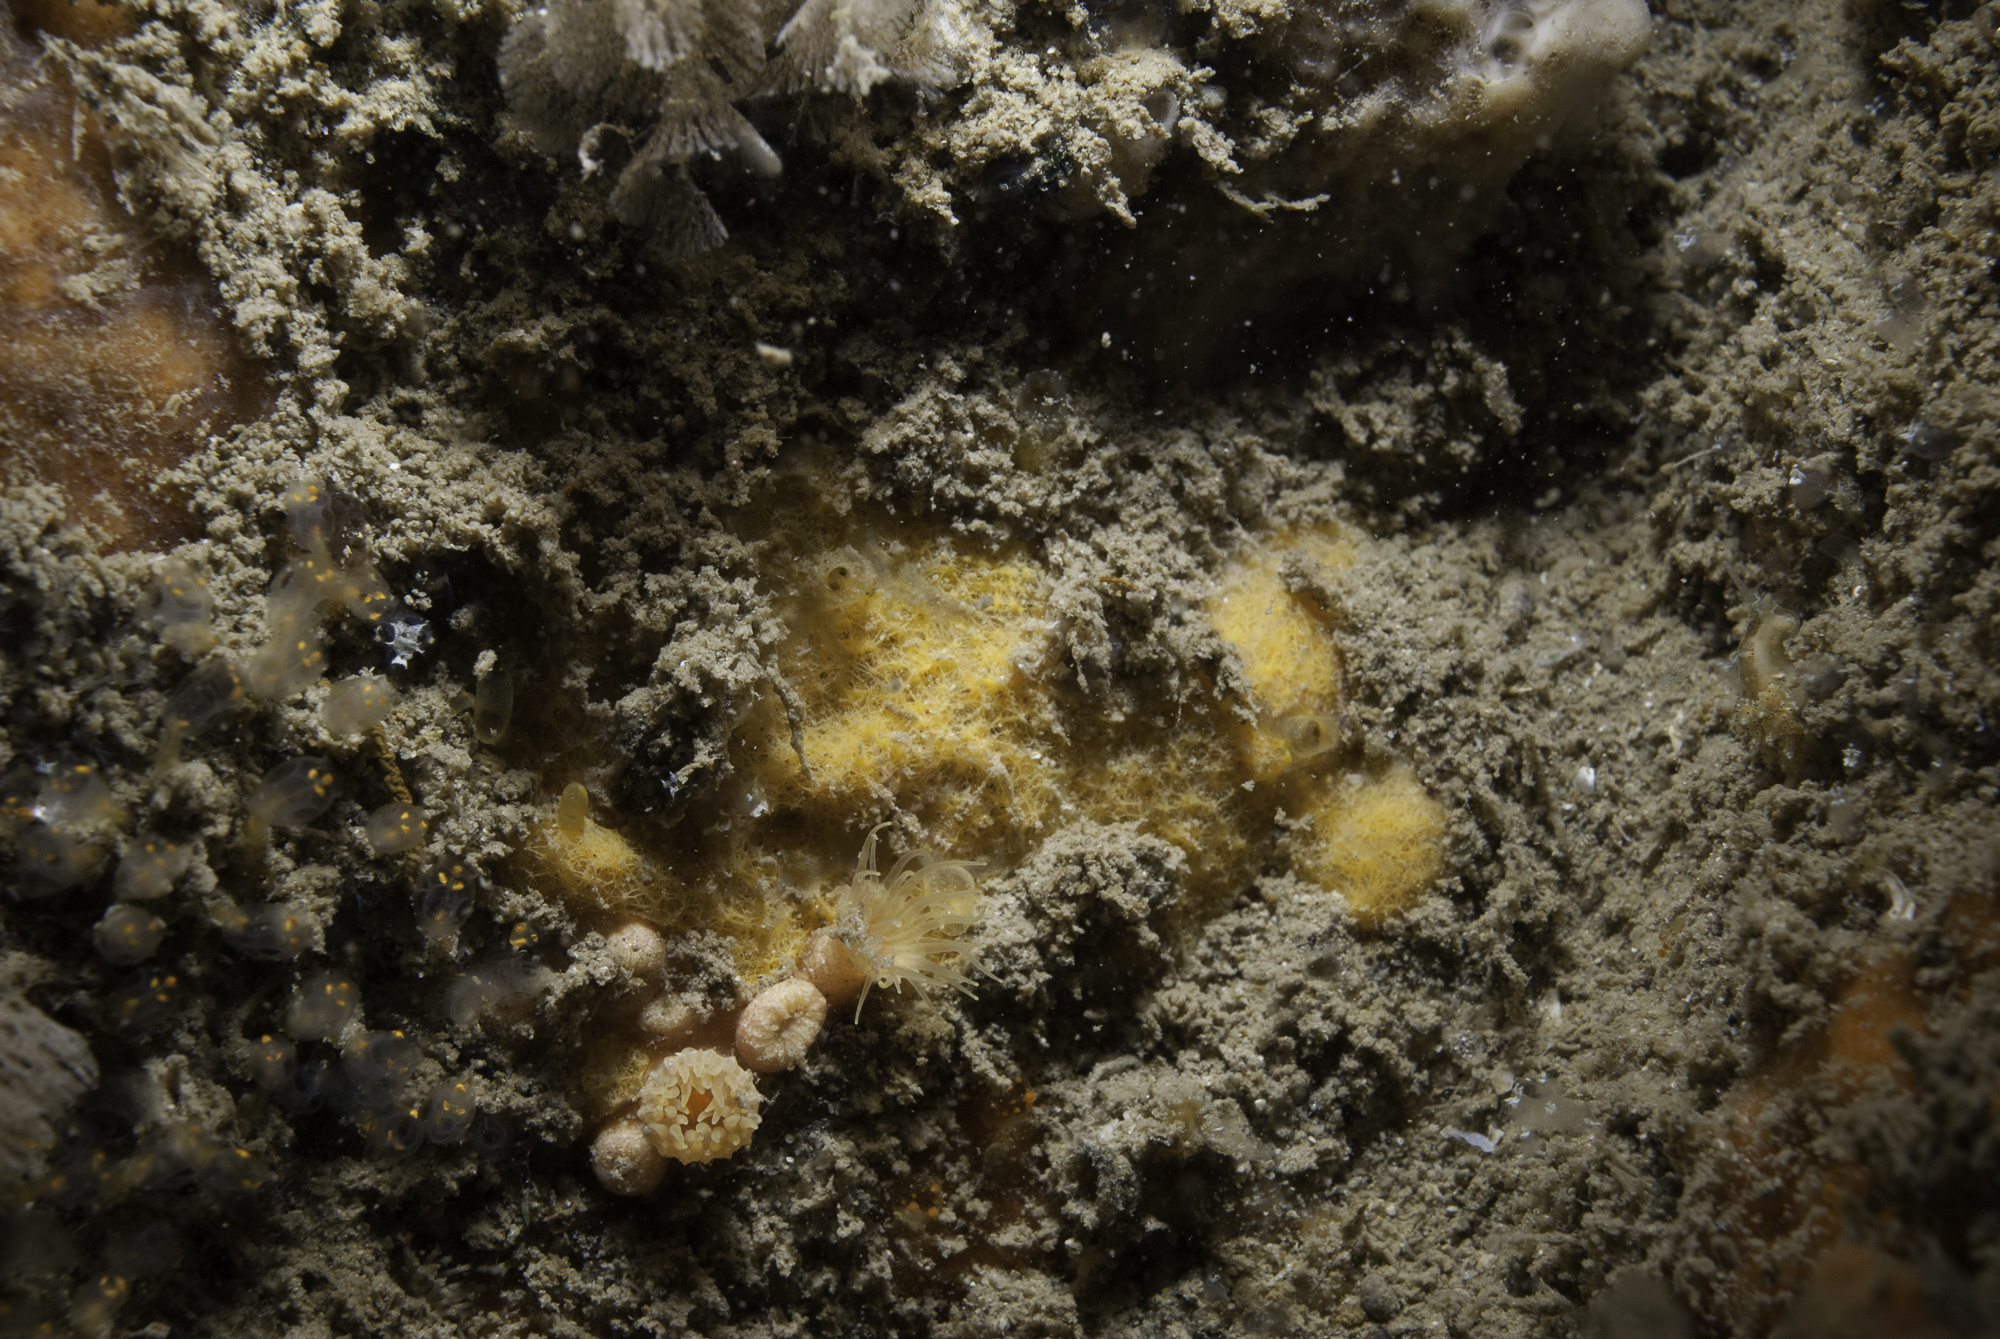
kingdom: Animalia
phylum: Porifera
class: Demospongiae
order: Agelasida
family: Hymerhabdiidae
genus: Prosuberites
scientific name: Prosuberites longispinus
